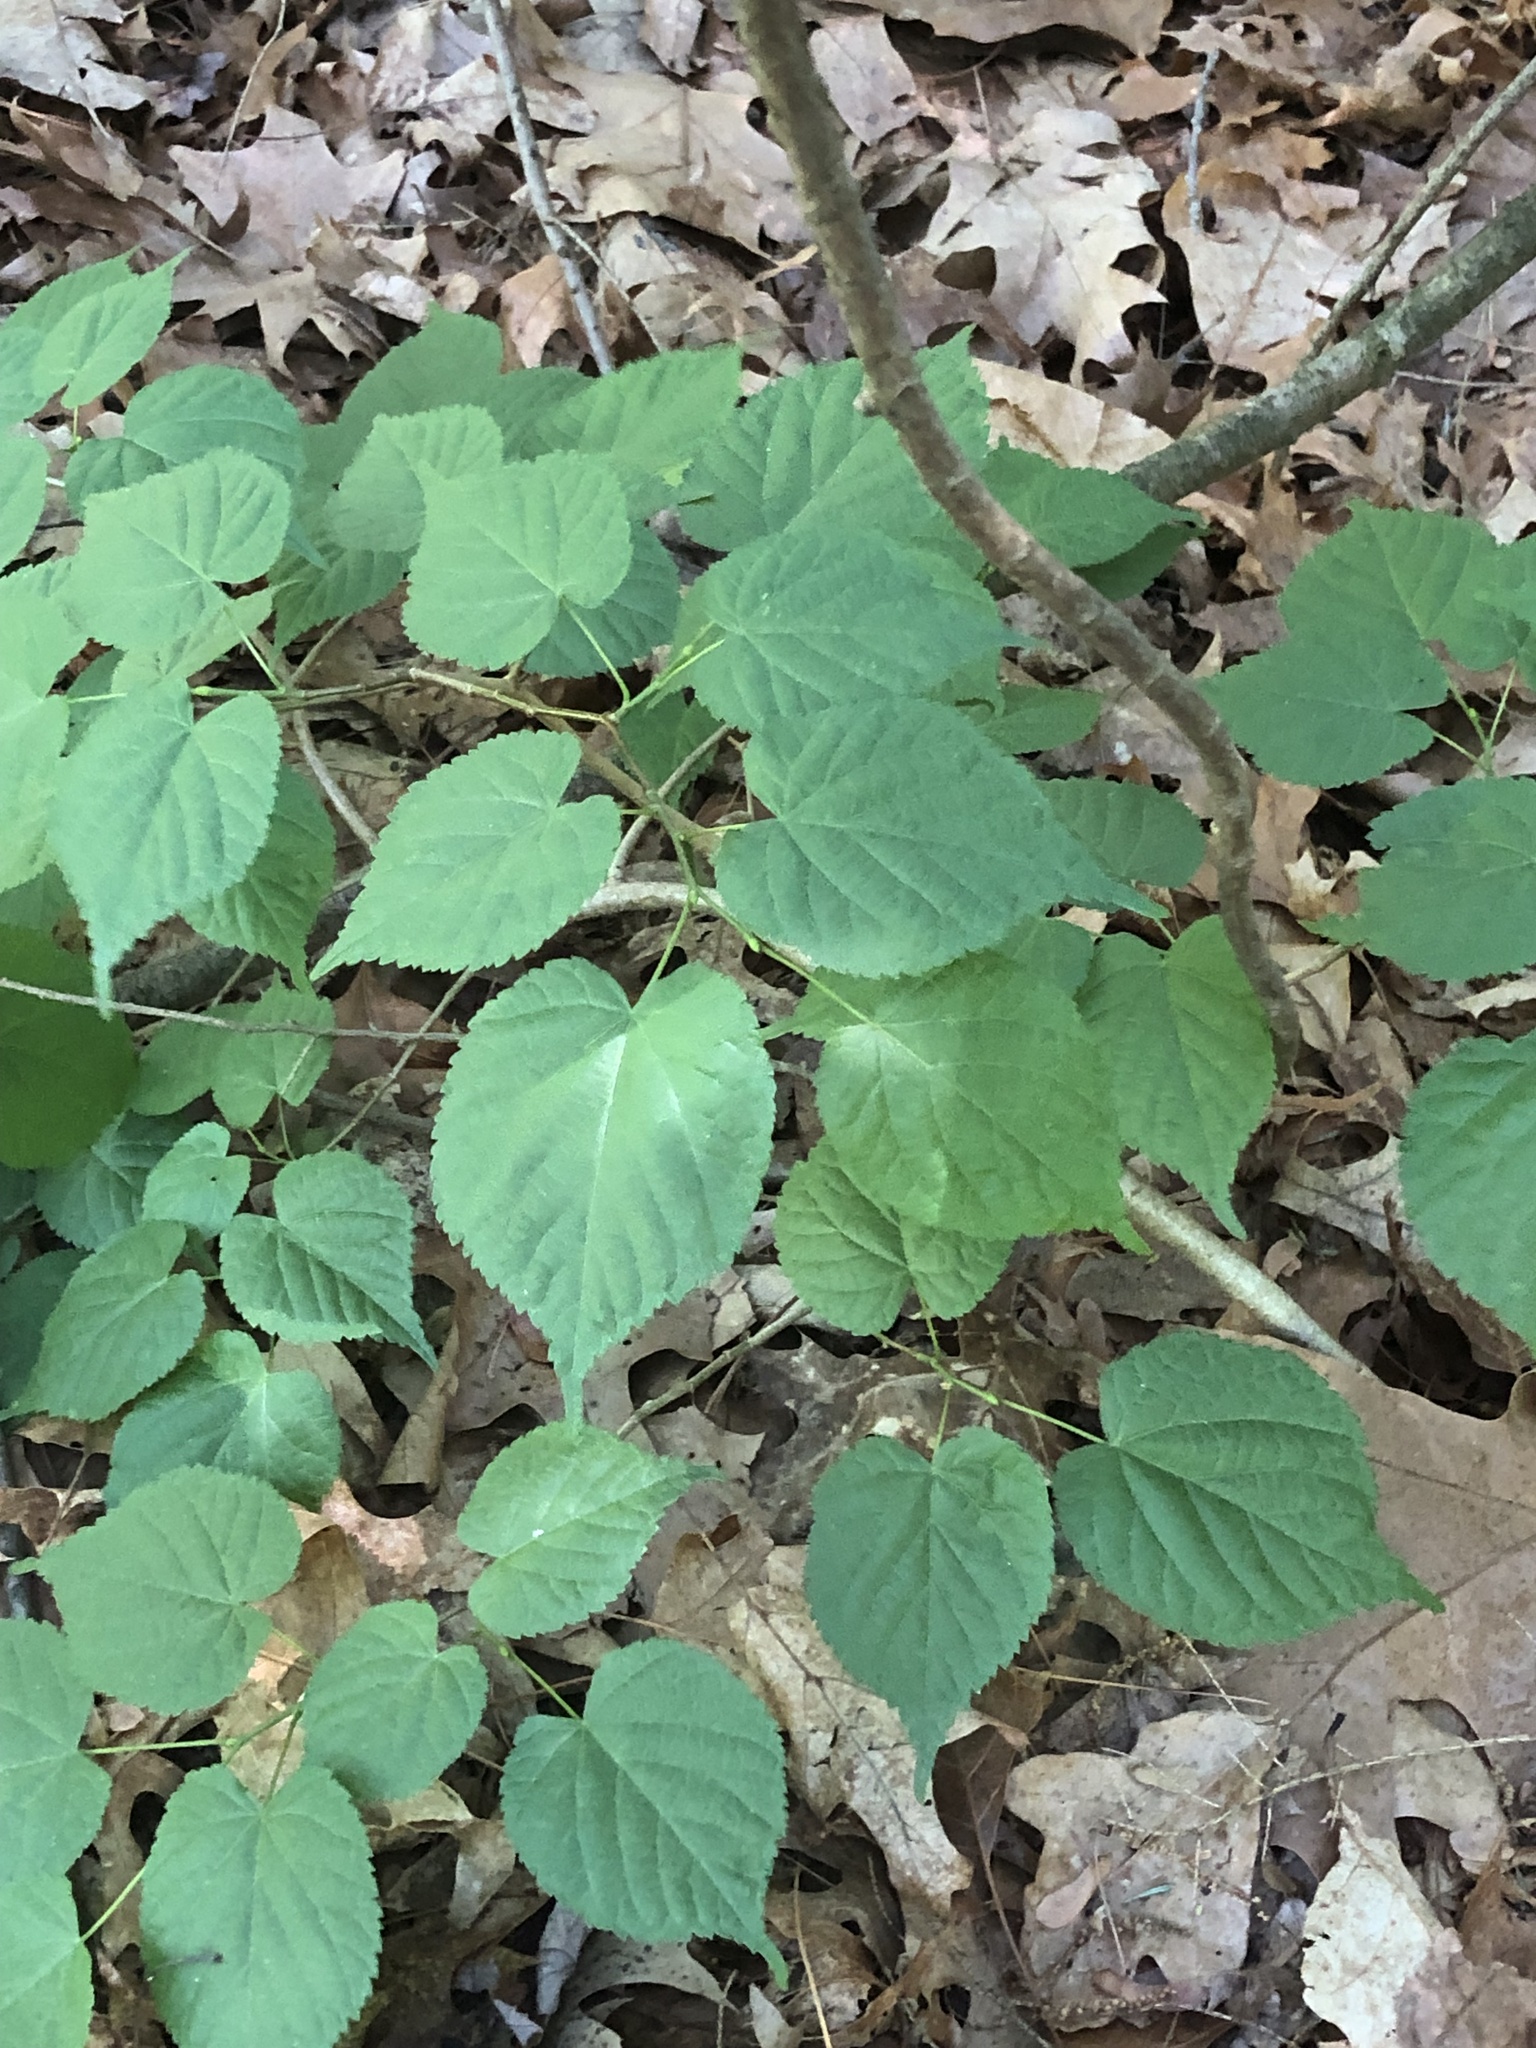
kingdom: Plantae
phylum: Tracheophyta
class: Magnoliopsida
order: Malvales
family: Malvaceae
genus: Tilia
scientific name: Tilia americana
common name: Basswood
